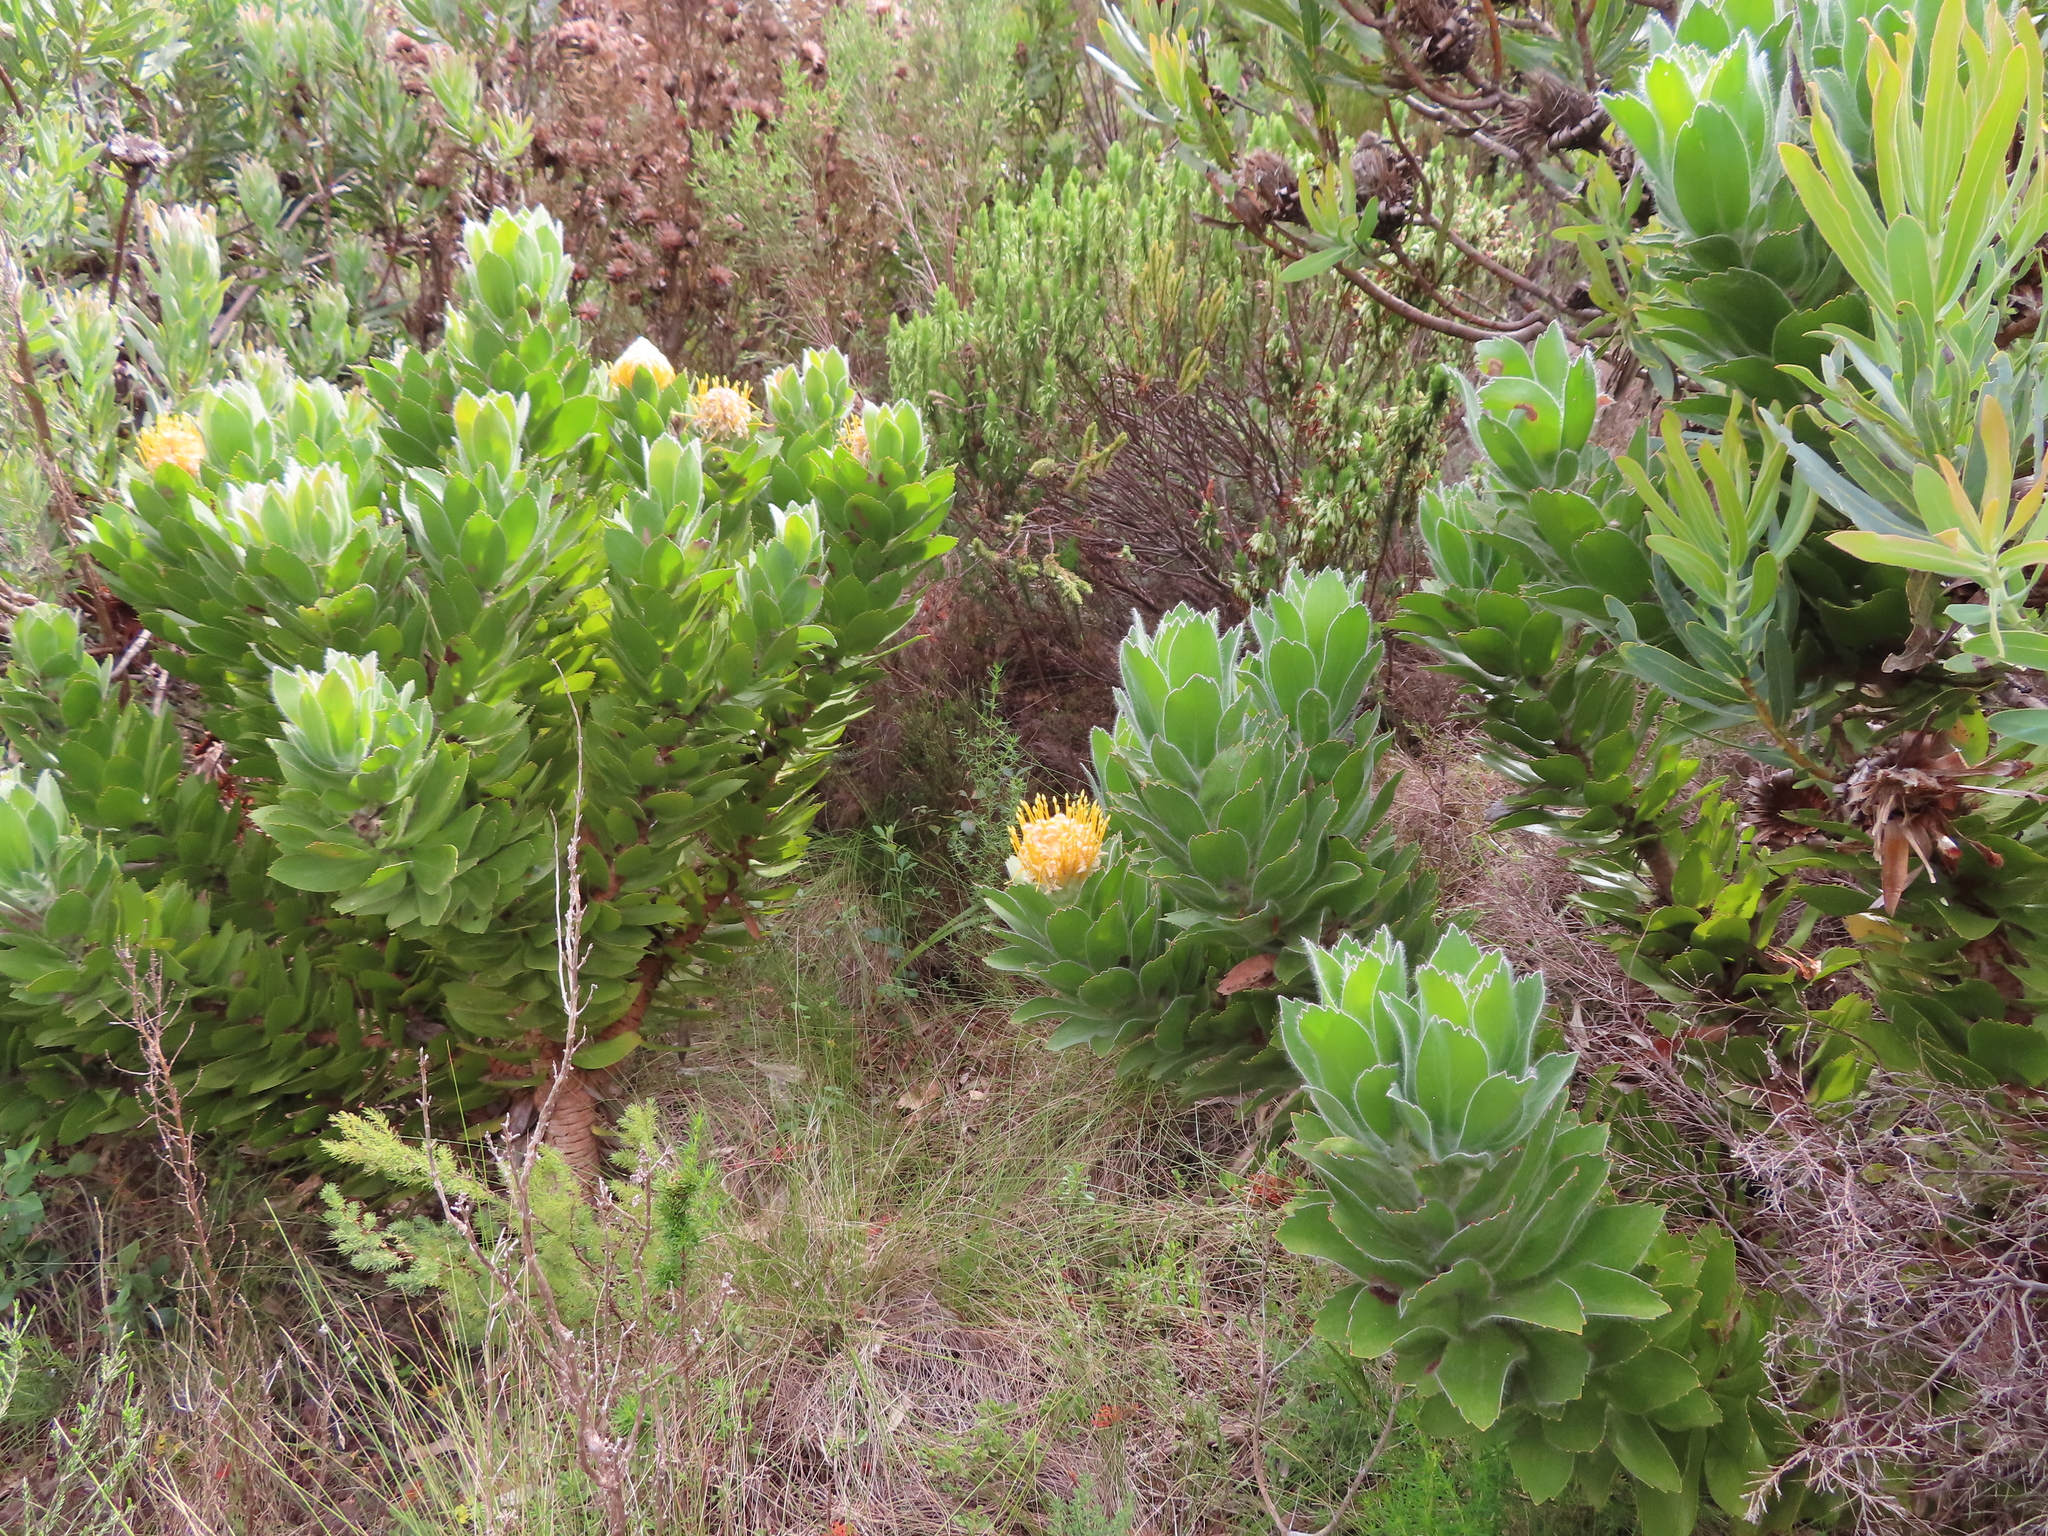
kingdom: Plantae
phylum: Tracheophyta
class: Magnoliopsida
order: Proteales
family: Proteaceae
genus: Leucospermum
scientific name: Leucospermum conocarpodendron
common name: Tree pincushion
